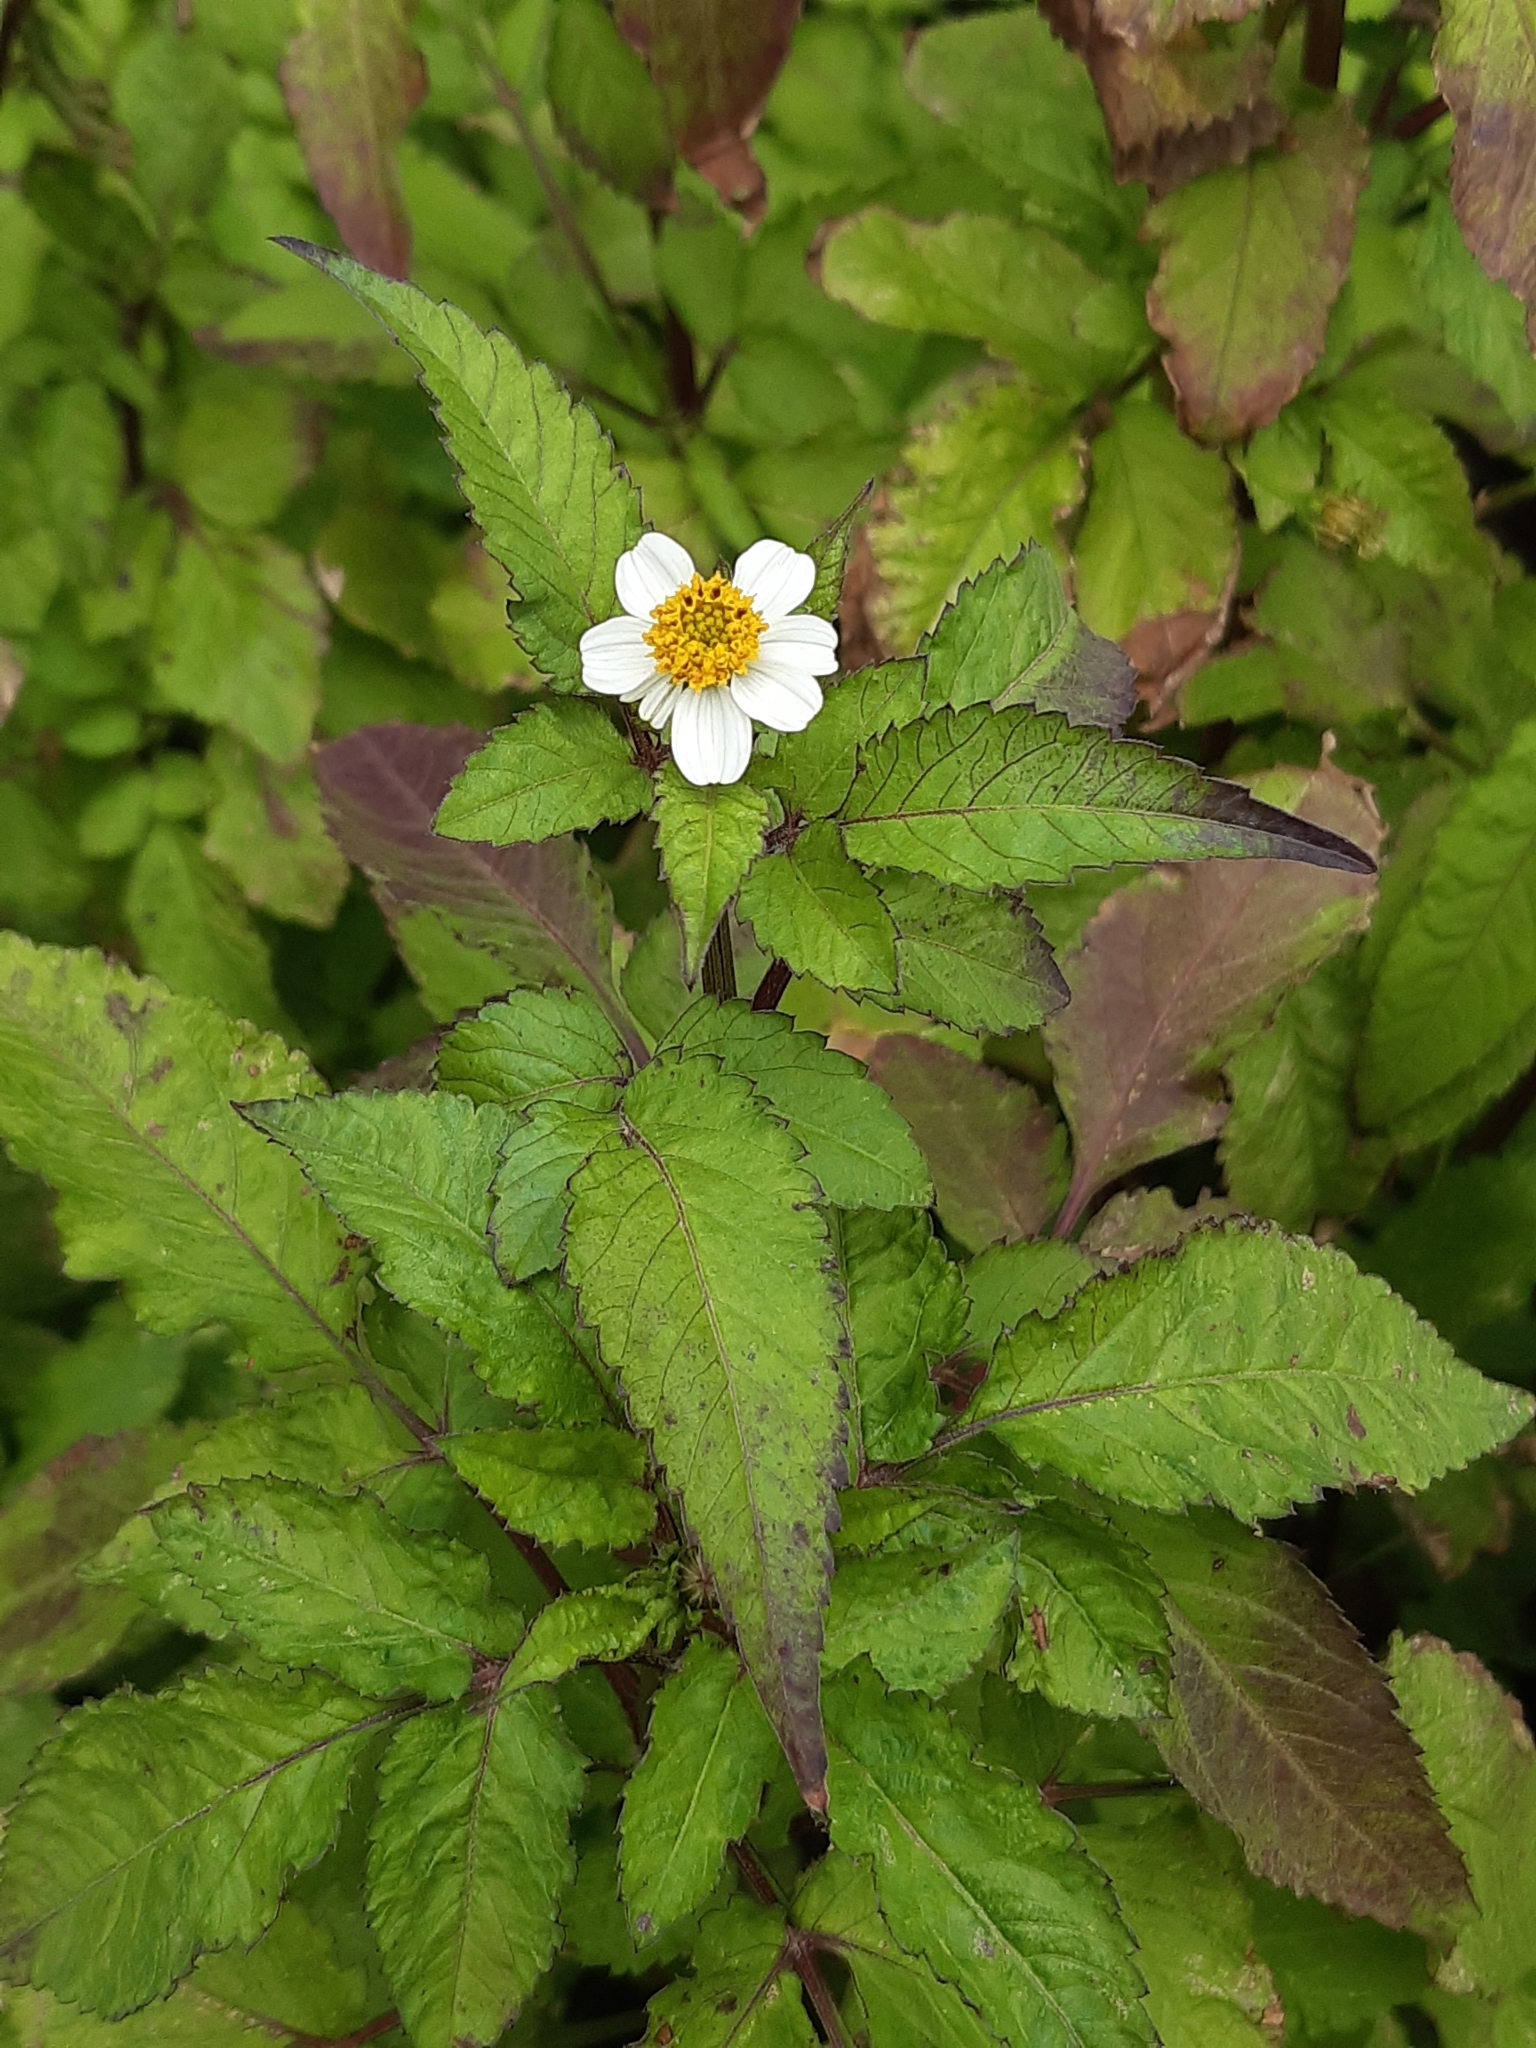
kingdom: Plantae
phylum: Tracheophyta
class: Magnoliopsida
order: Asterales
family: Asteraceae
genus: Bidens
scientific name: Bidens pilosa
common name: Black-jack
